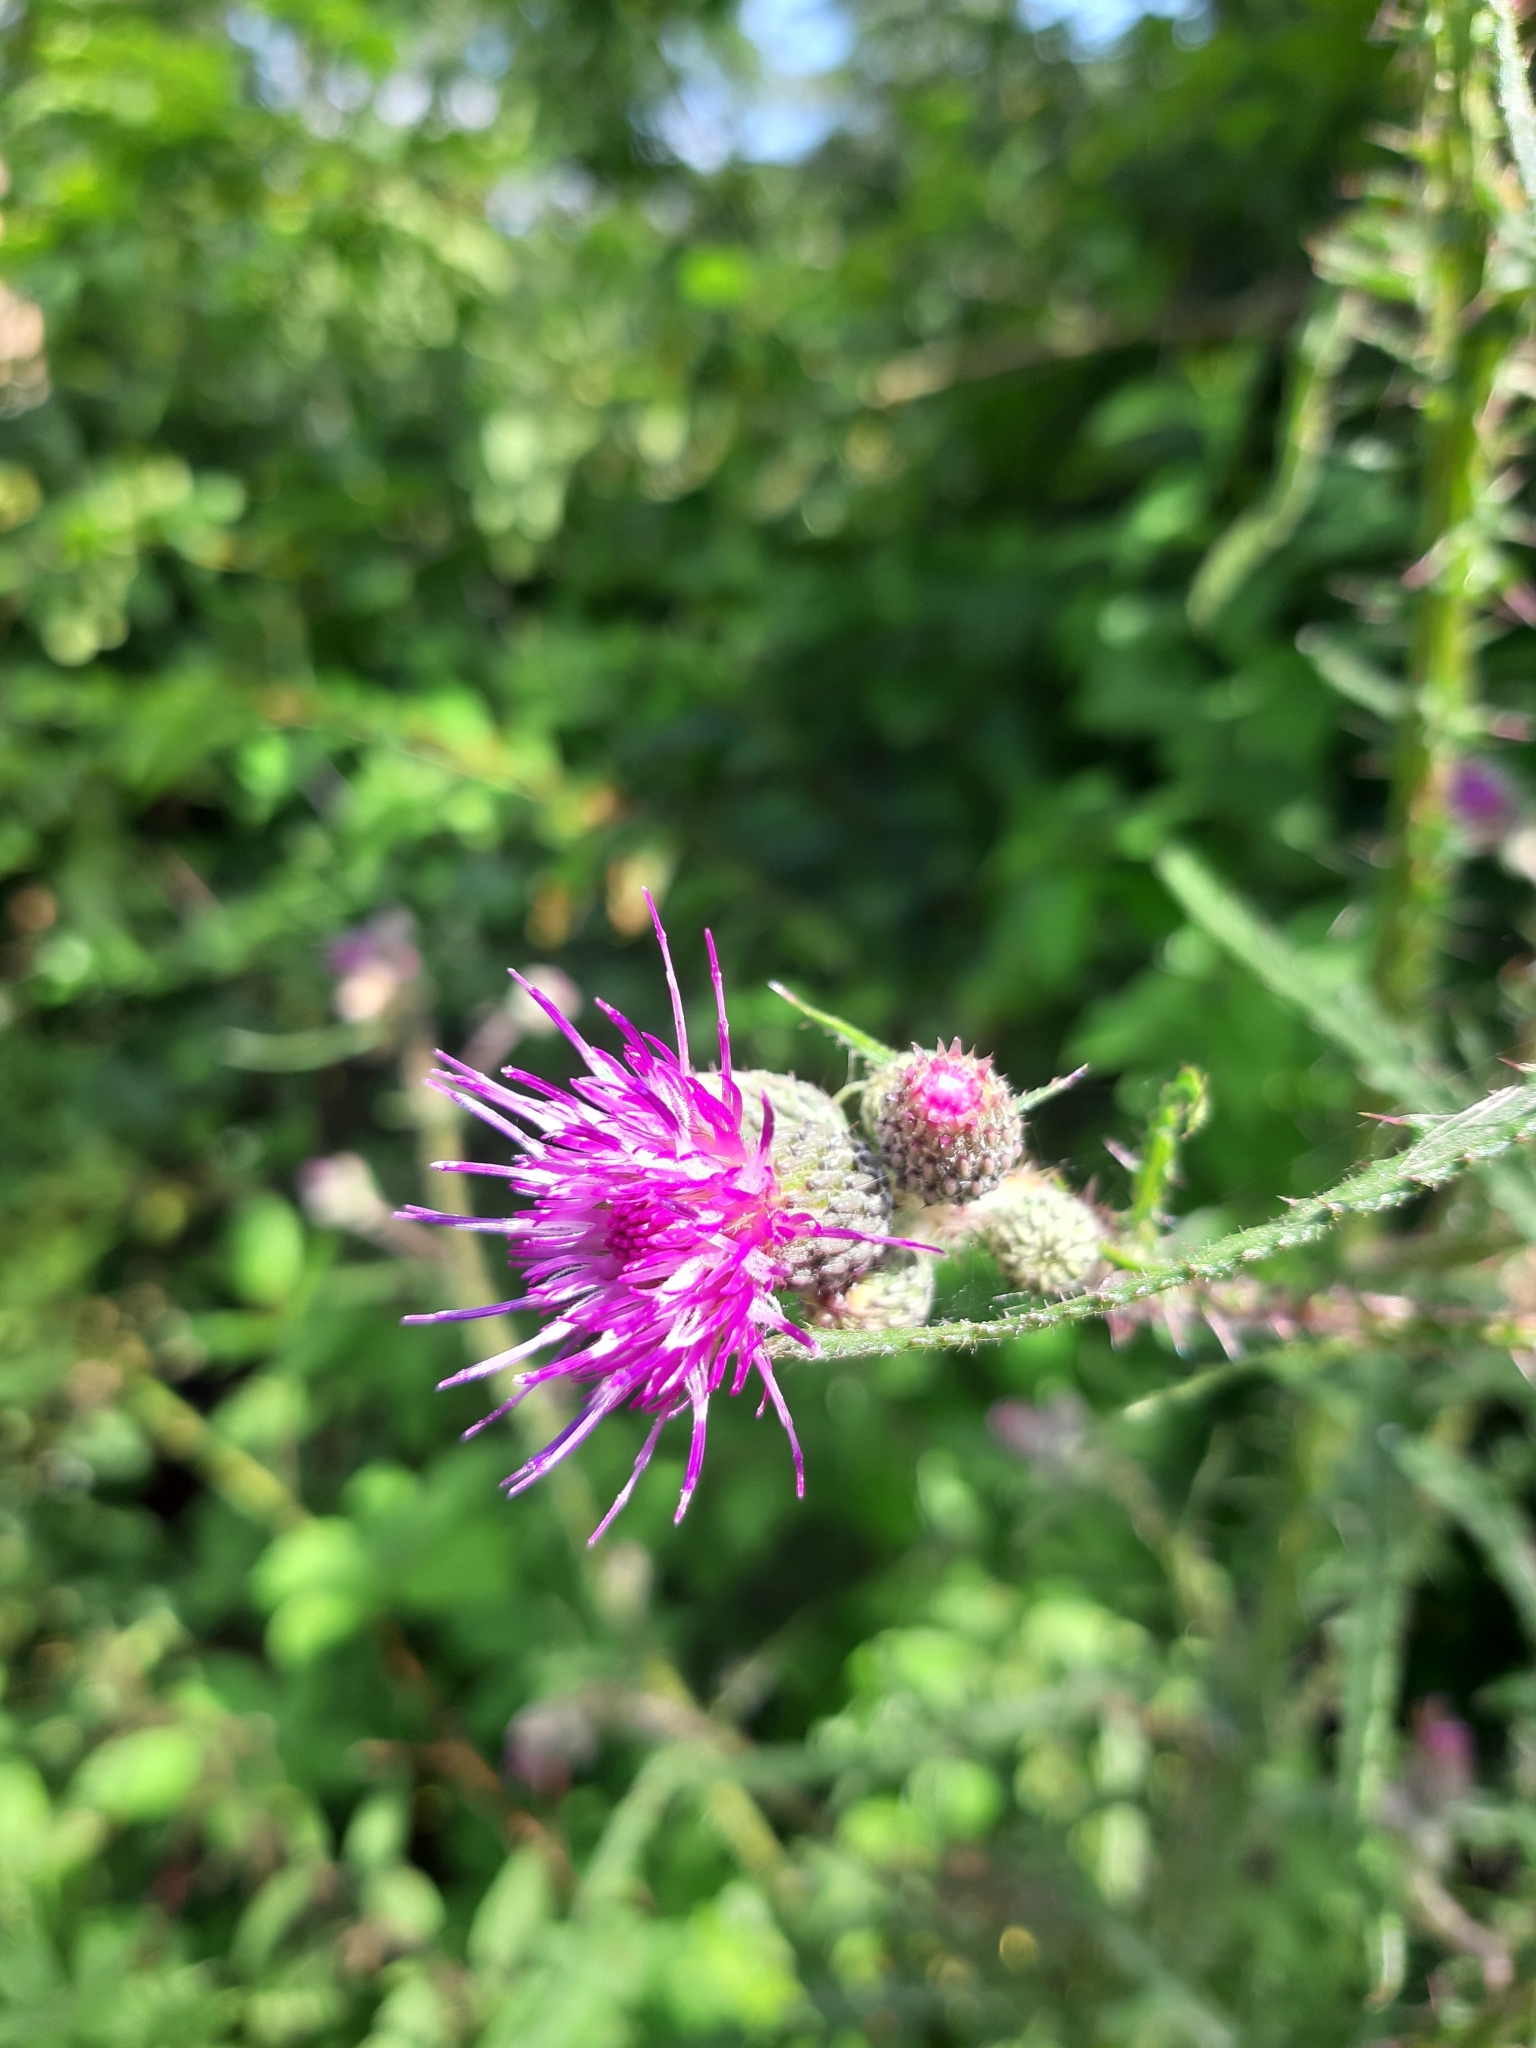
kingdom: Plantae
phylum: Tracheophyta
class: Magnoliopsida
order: Asterales
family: Asteraceae
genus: Cirsium
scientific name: Cirsium palustre
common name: Marsh thistle
